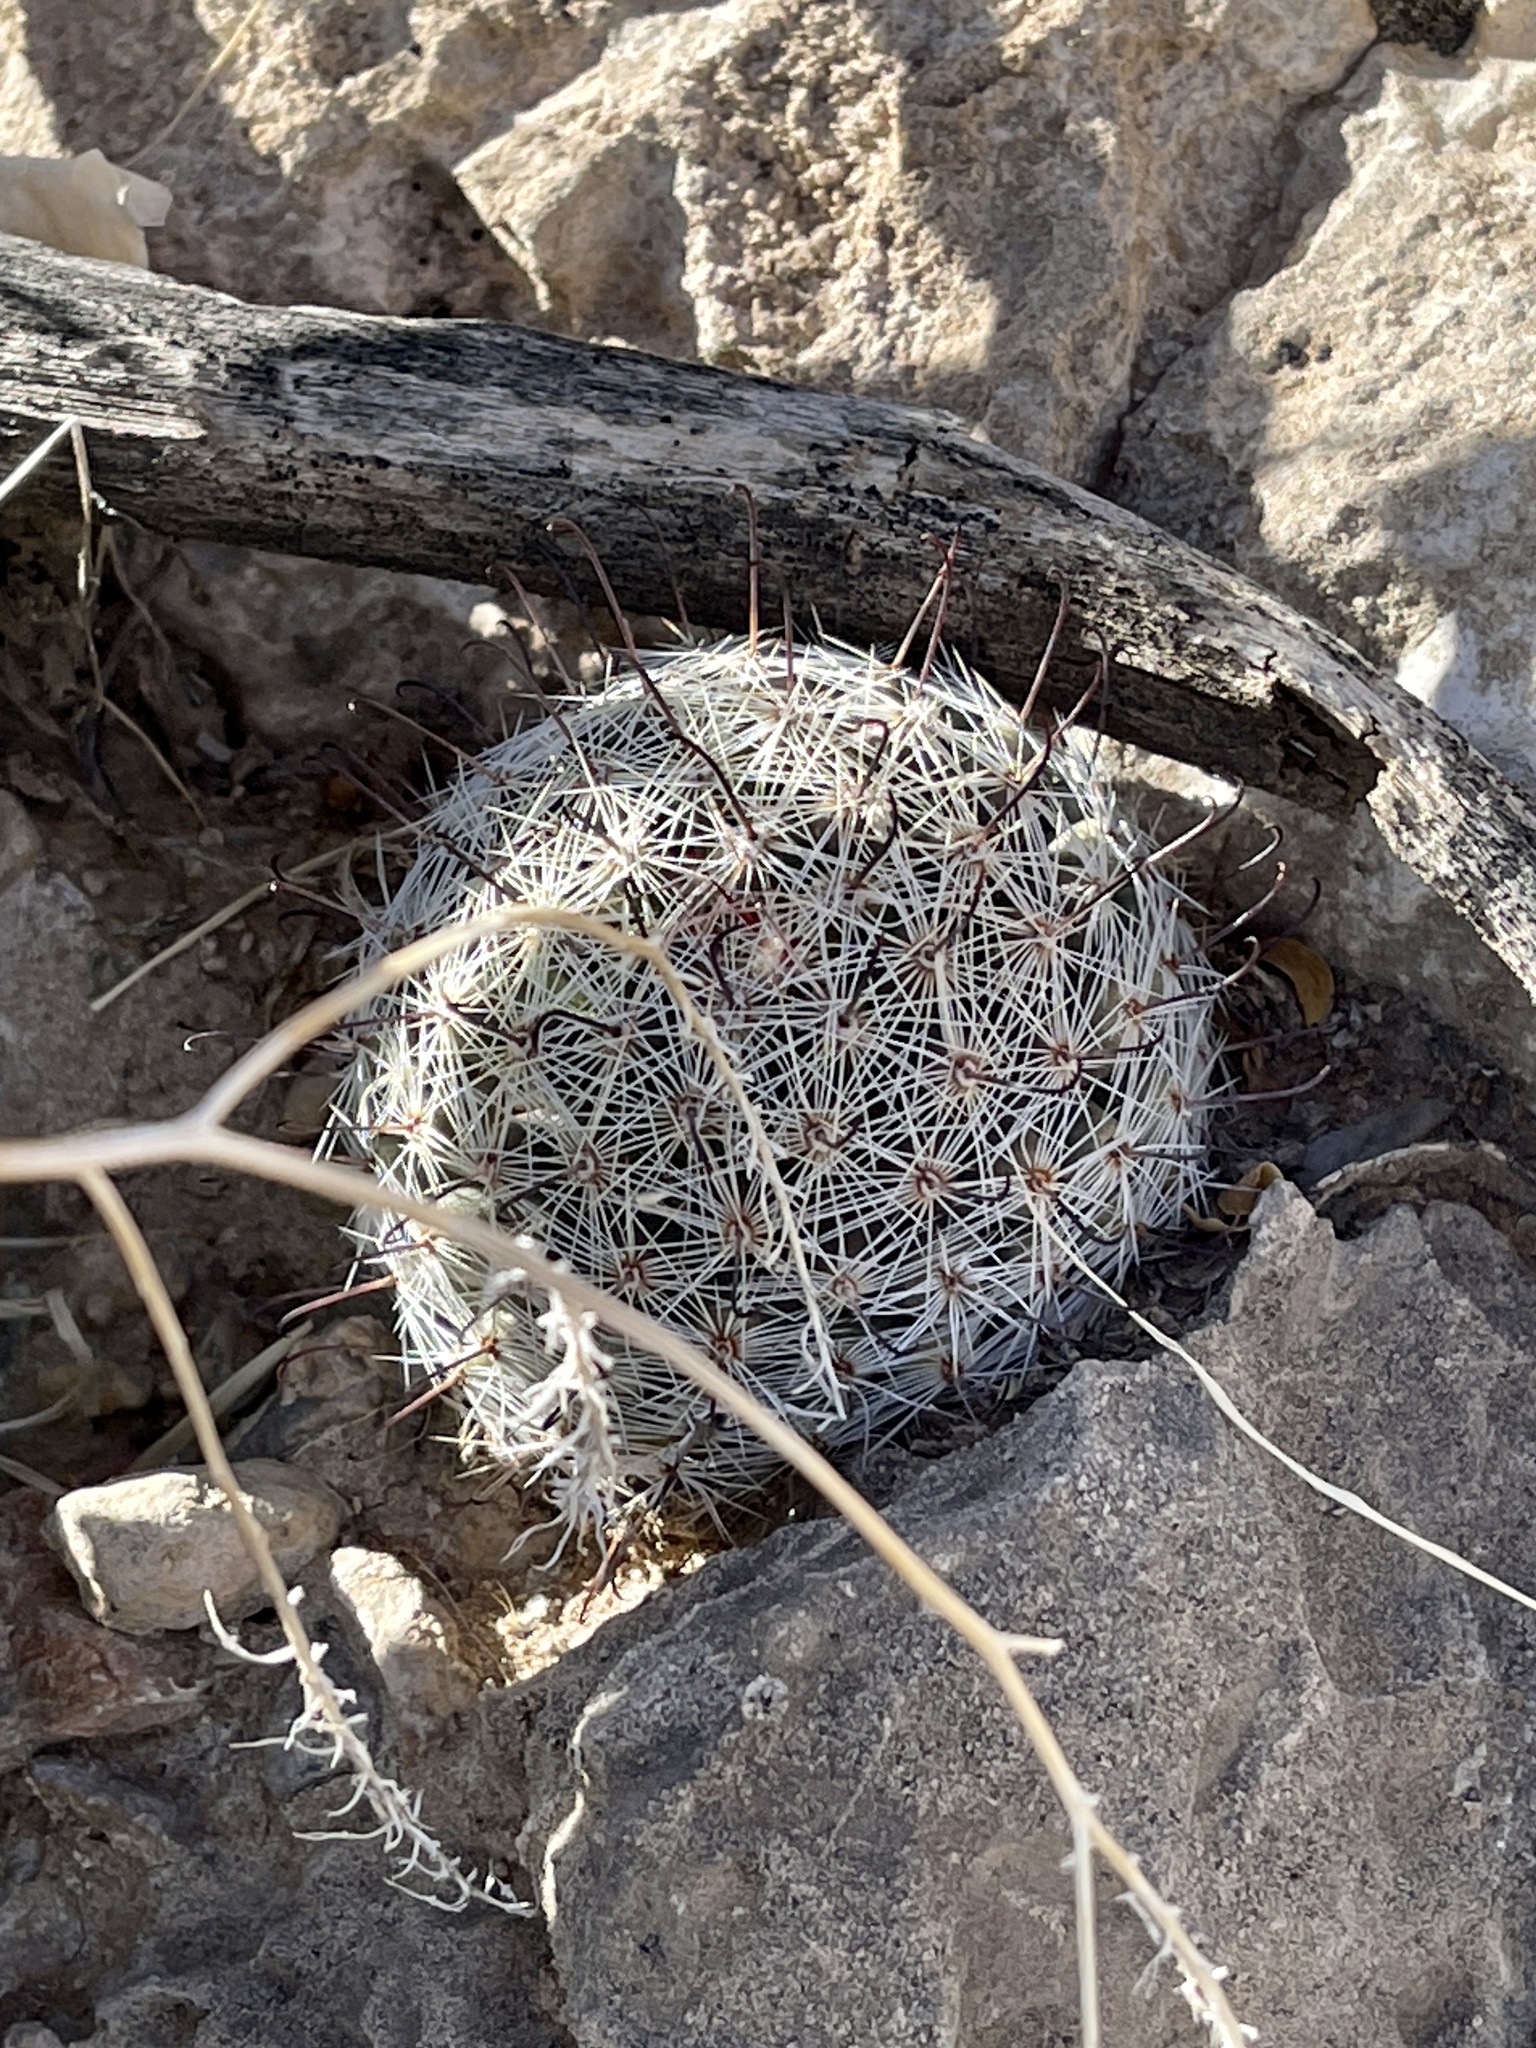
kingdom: Plantae
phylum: Tracheophyta
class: Magnoliopsida
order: Caryophyllales
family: Cactaceae
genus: Cochemiea
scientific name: Cochemiea grahamii
